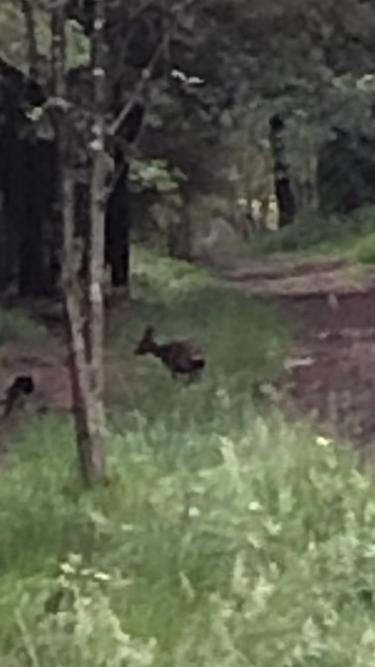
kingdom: Animalia
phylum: Chordata
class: Mammalia
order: Artiodactyla
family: Cervidae
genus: Capreolus
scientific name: Capreolus capreolus
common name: Western roe deer
